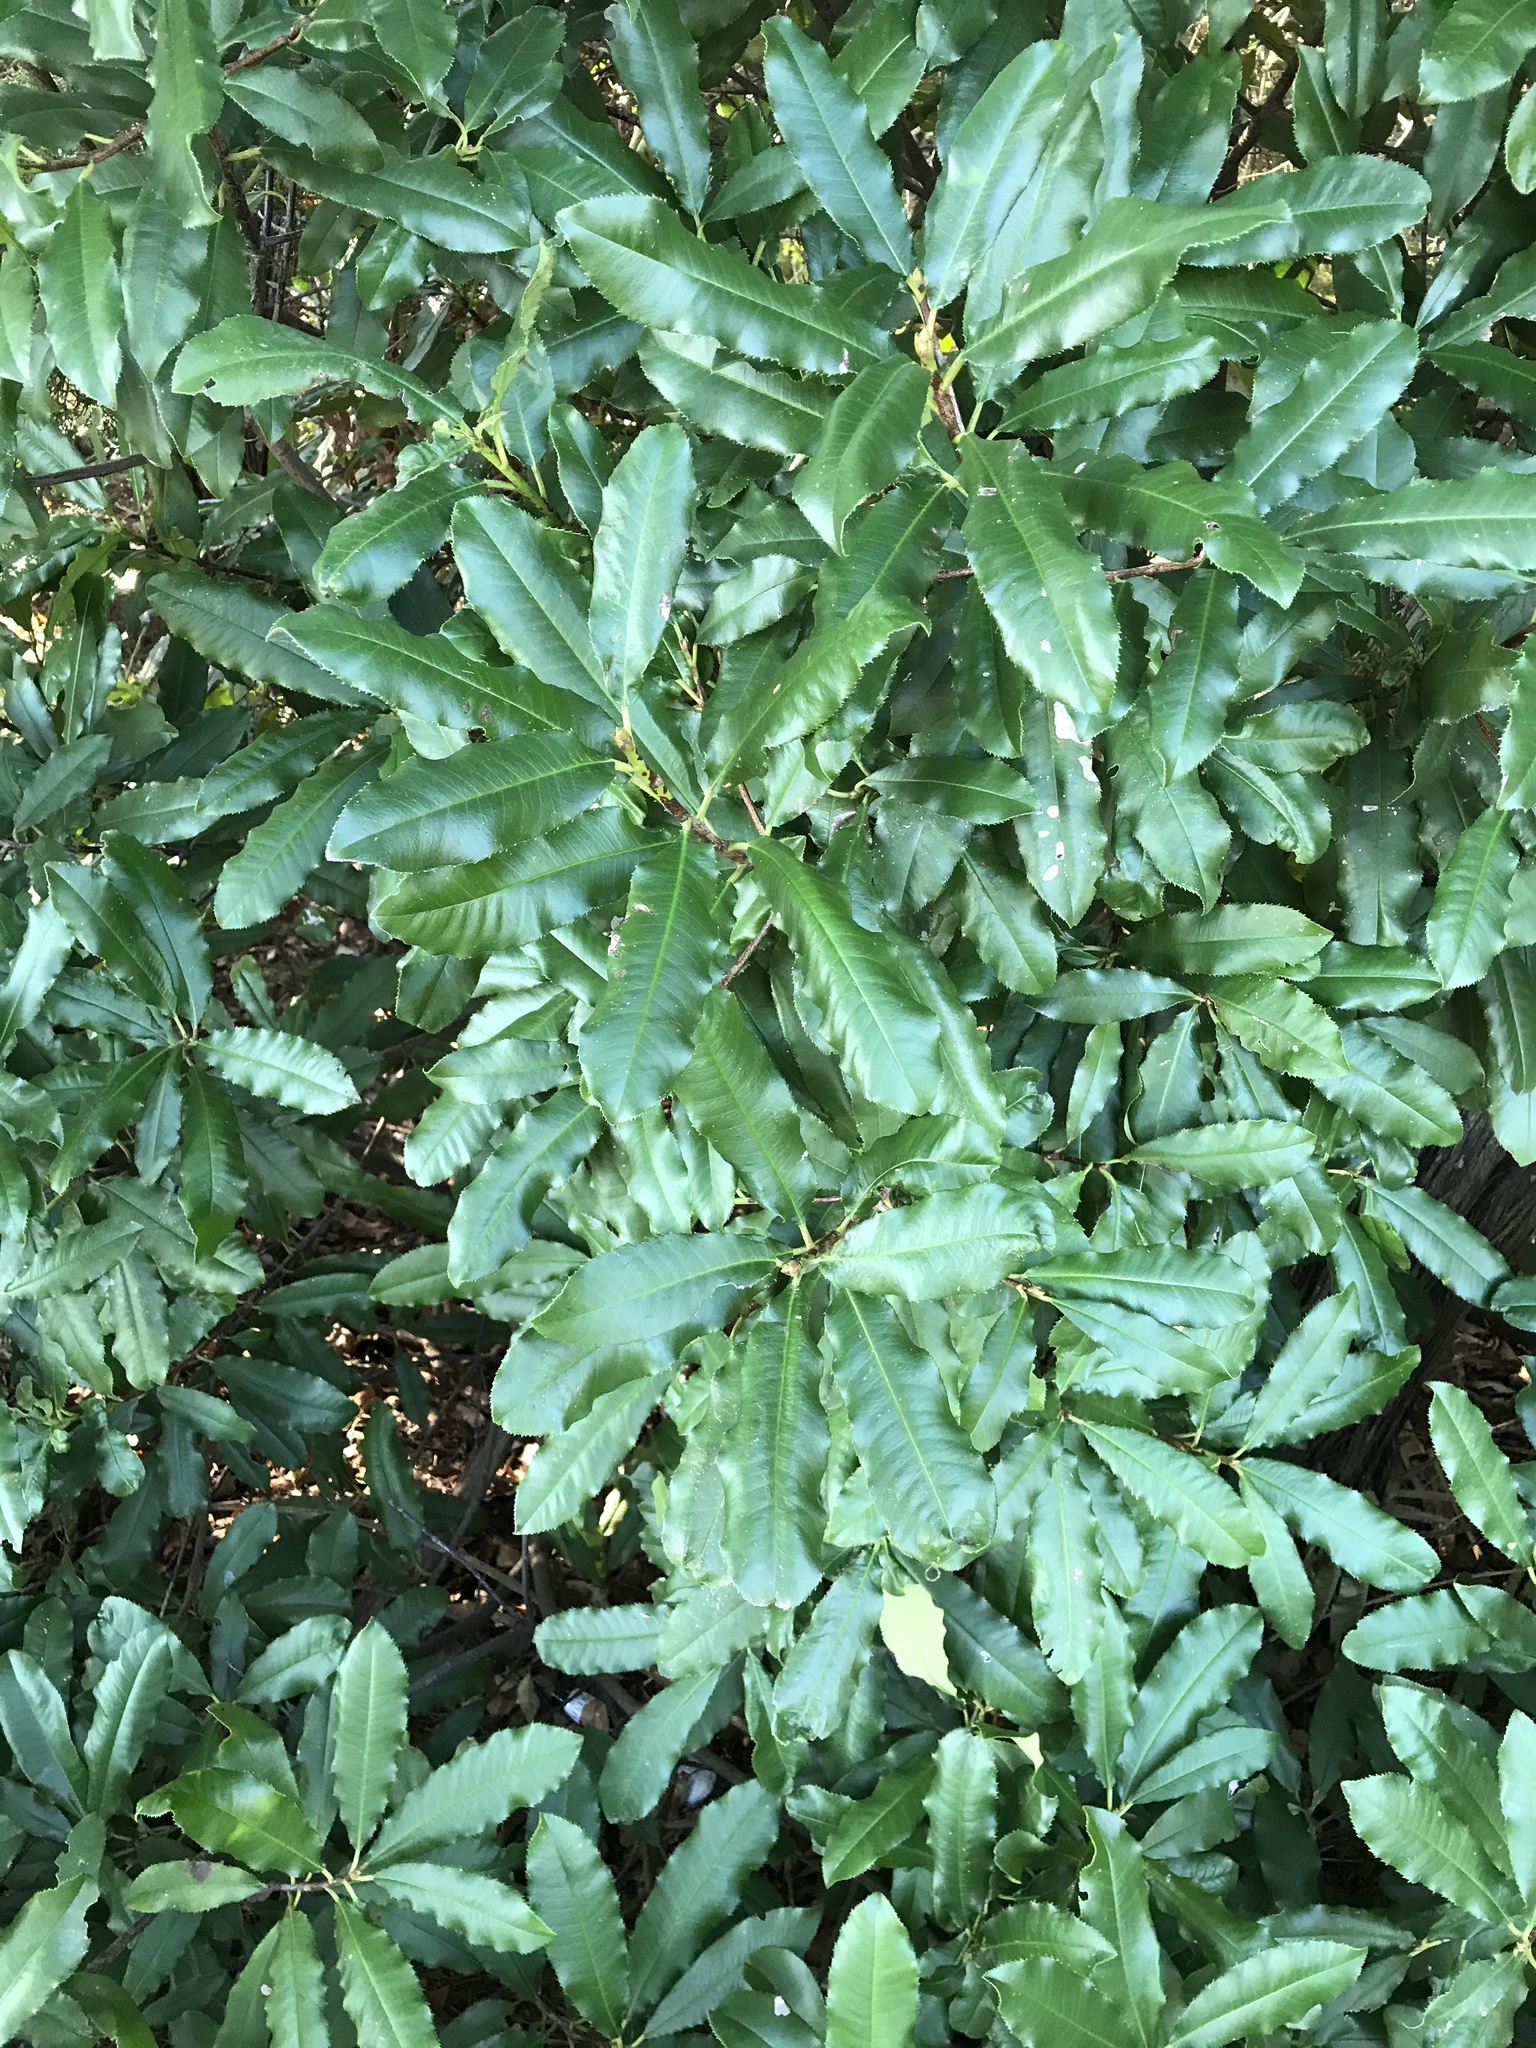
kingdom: Plantae
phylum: Tracheophyta
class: Magnoliopsida
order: Rosales
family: Rosaceae
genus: Photinia
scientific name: Photinia serratifolia
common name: Taiwanese photinia
